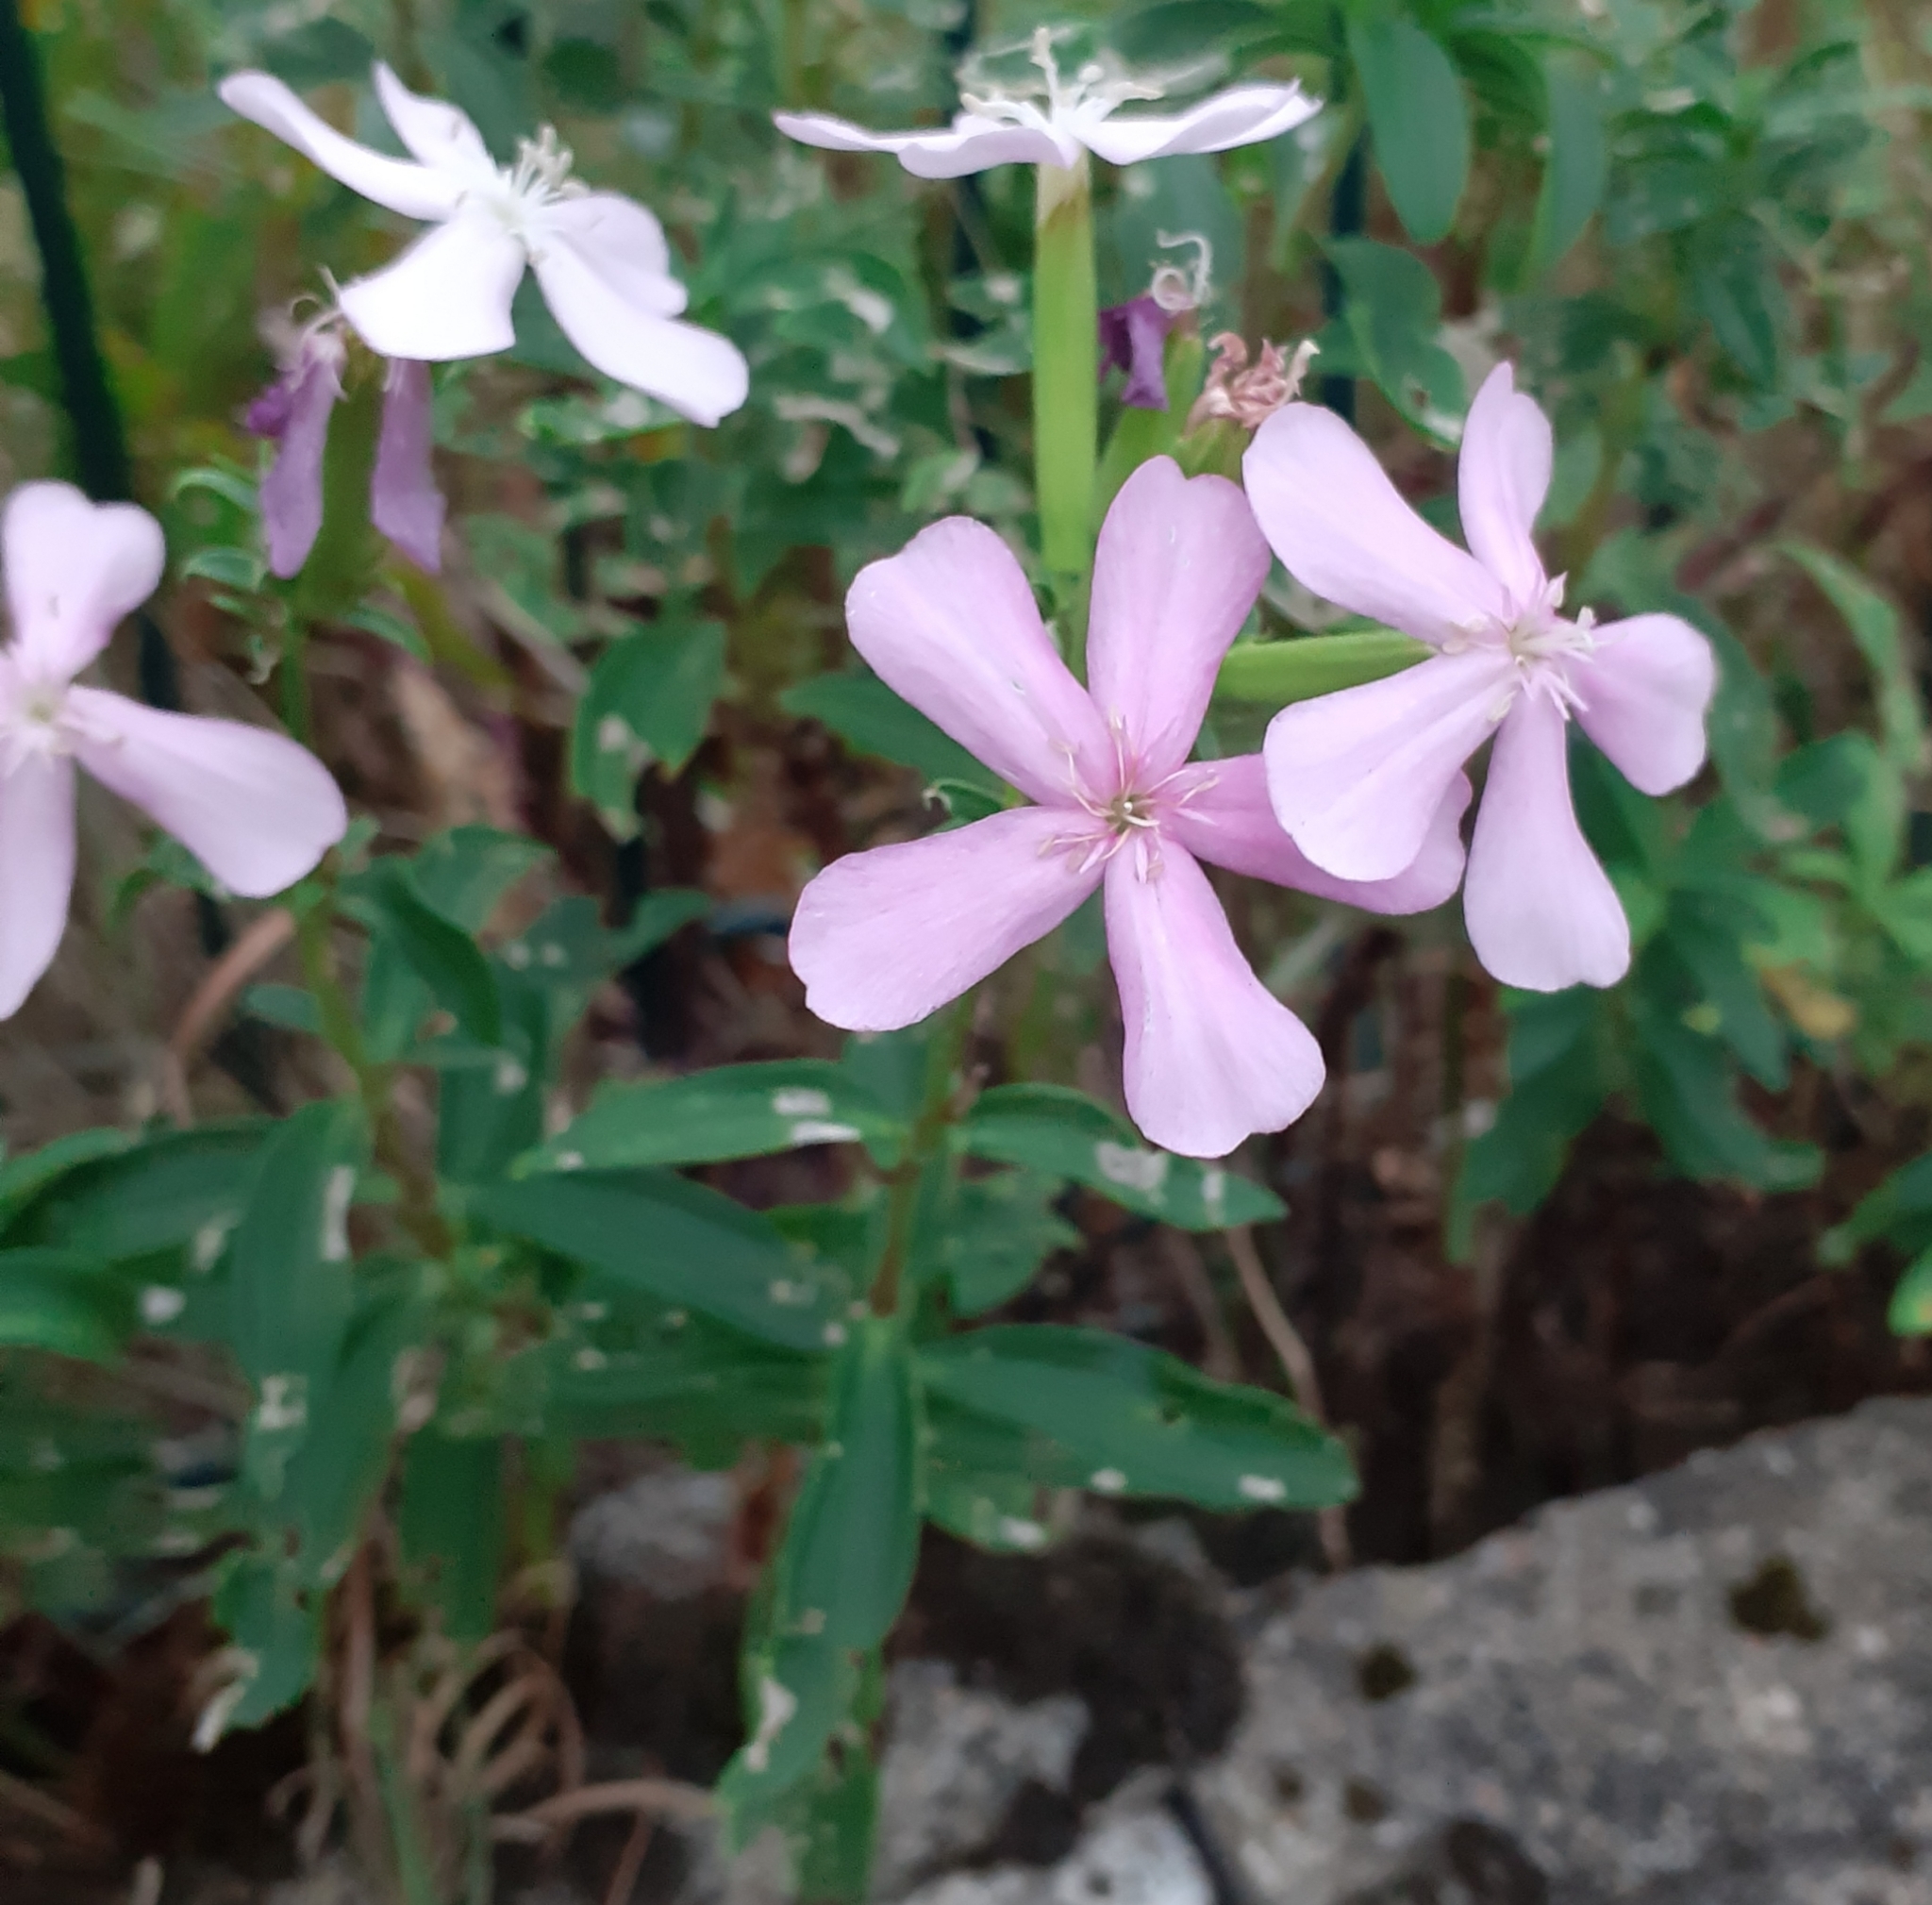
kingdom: Plantae
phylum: Tracheophyta
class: Magnoliopsida
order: Caryophyllales
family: Caryophyllaceae
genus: Saponaria
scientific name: Saponaria officinalis
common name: Soapwort
